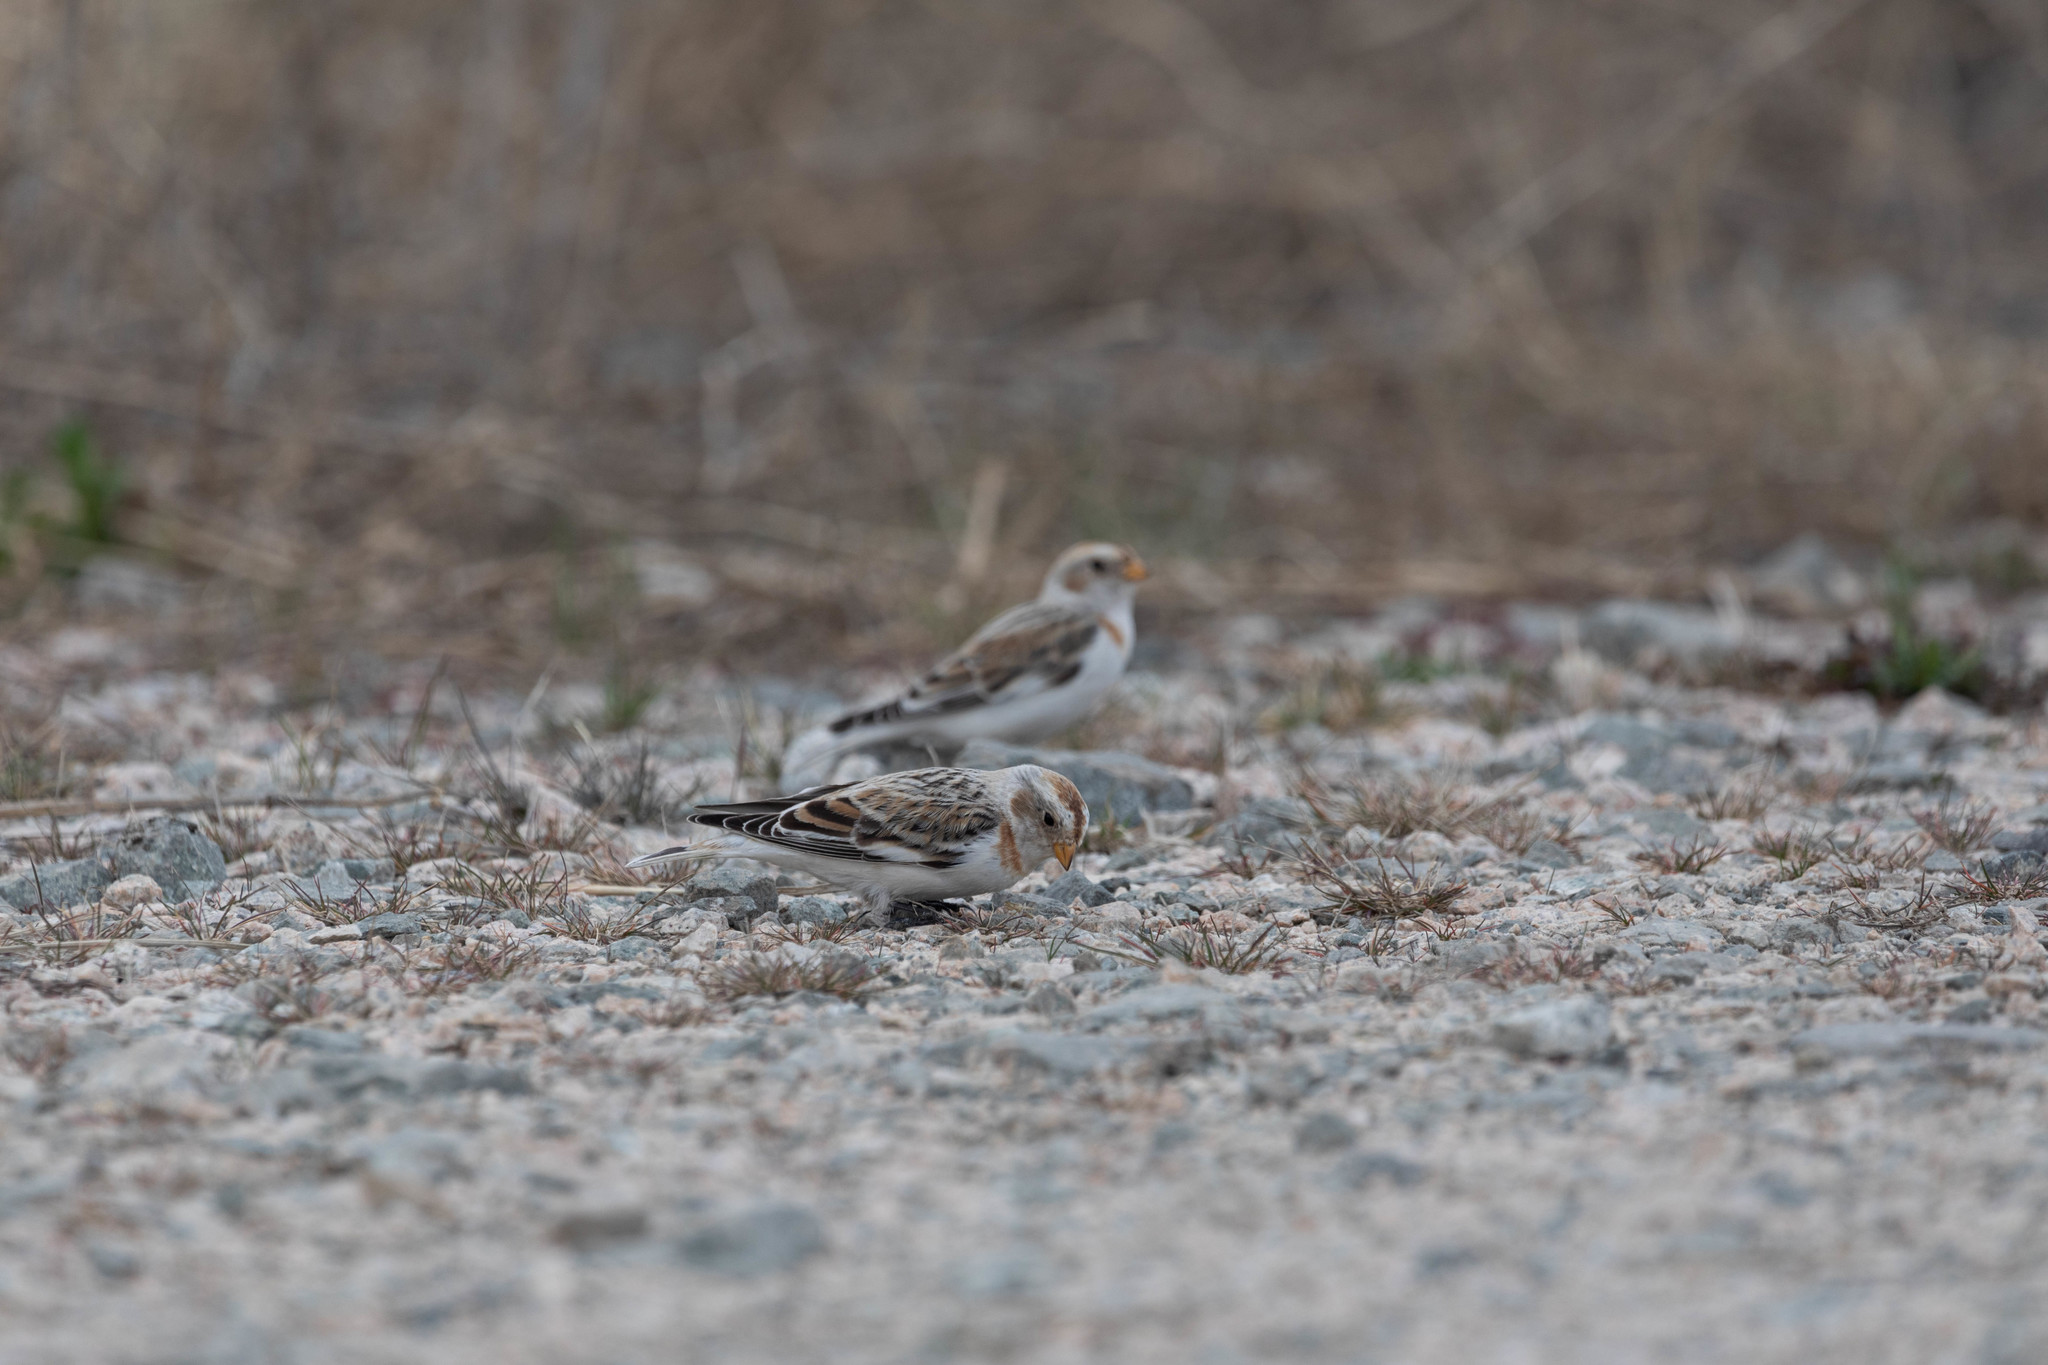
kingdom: Animalia
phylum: Chordata
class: Aves
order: Passeriformes
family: Calcariidae
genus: Plectrophenax
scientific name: Plectrophenax nivalis
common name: Snow bunting
